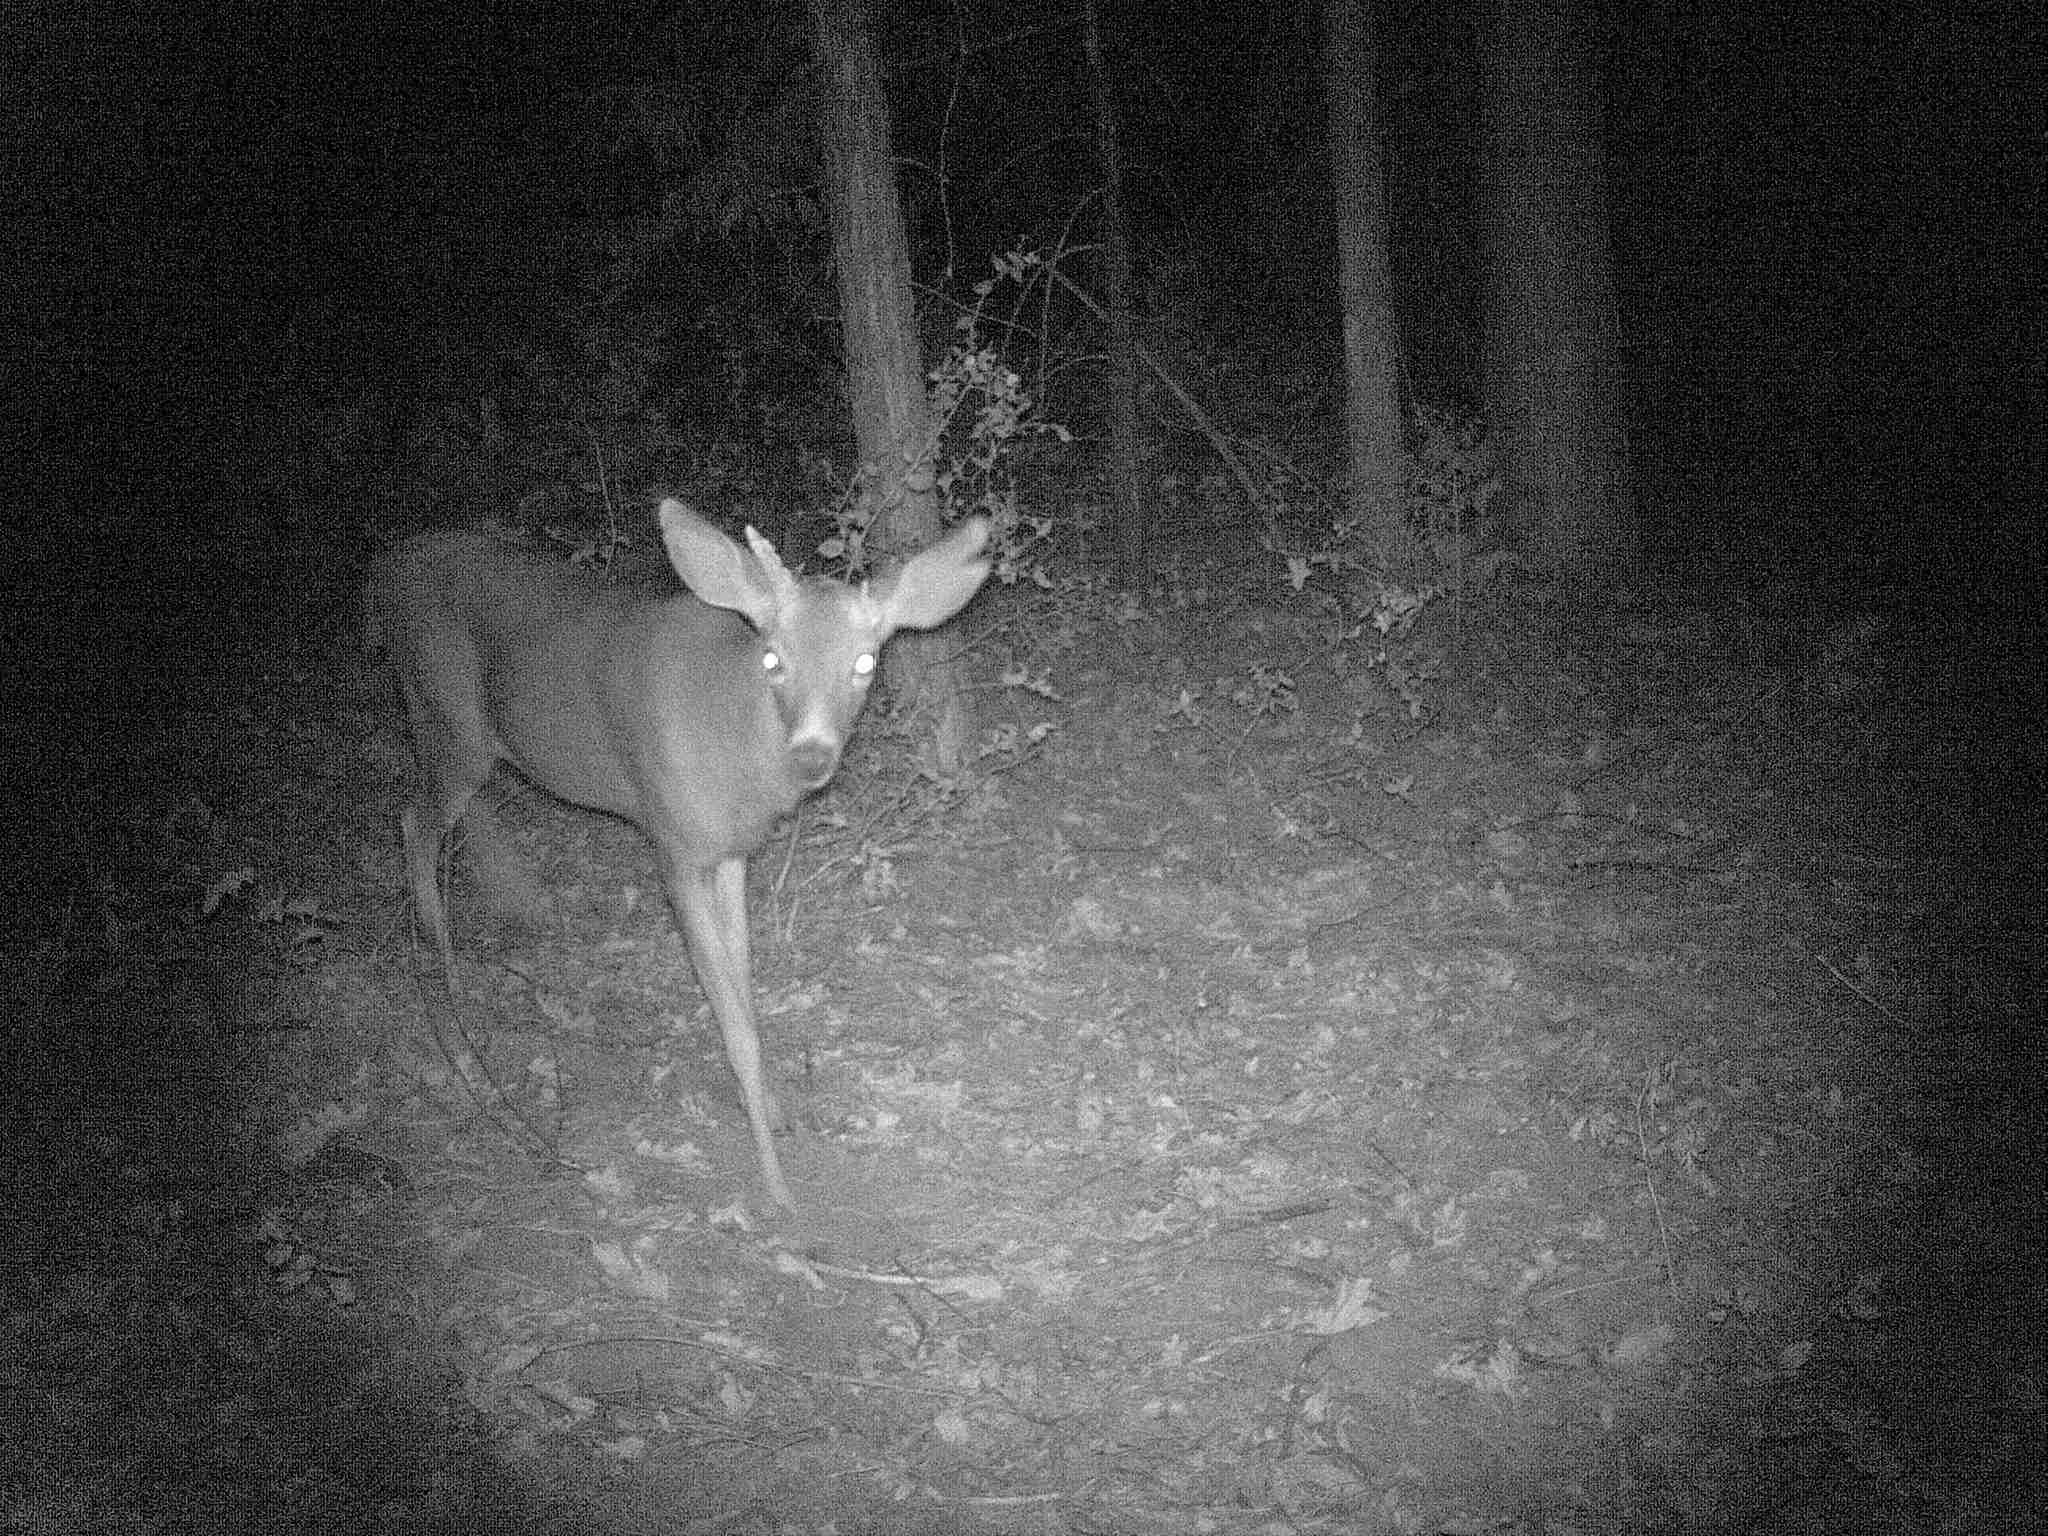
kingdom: Animalia
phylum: Chordata
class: Mammalia
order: Artiodactyla
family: Cervidae
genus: Odocoileus
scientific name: Odocoileus hemionus
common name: Mule deer
